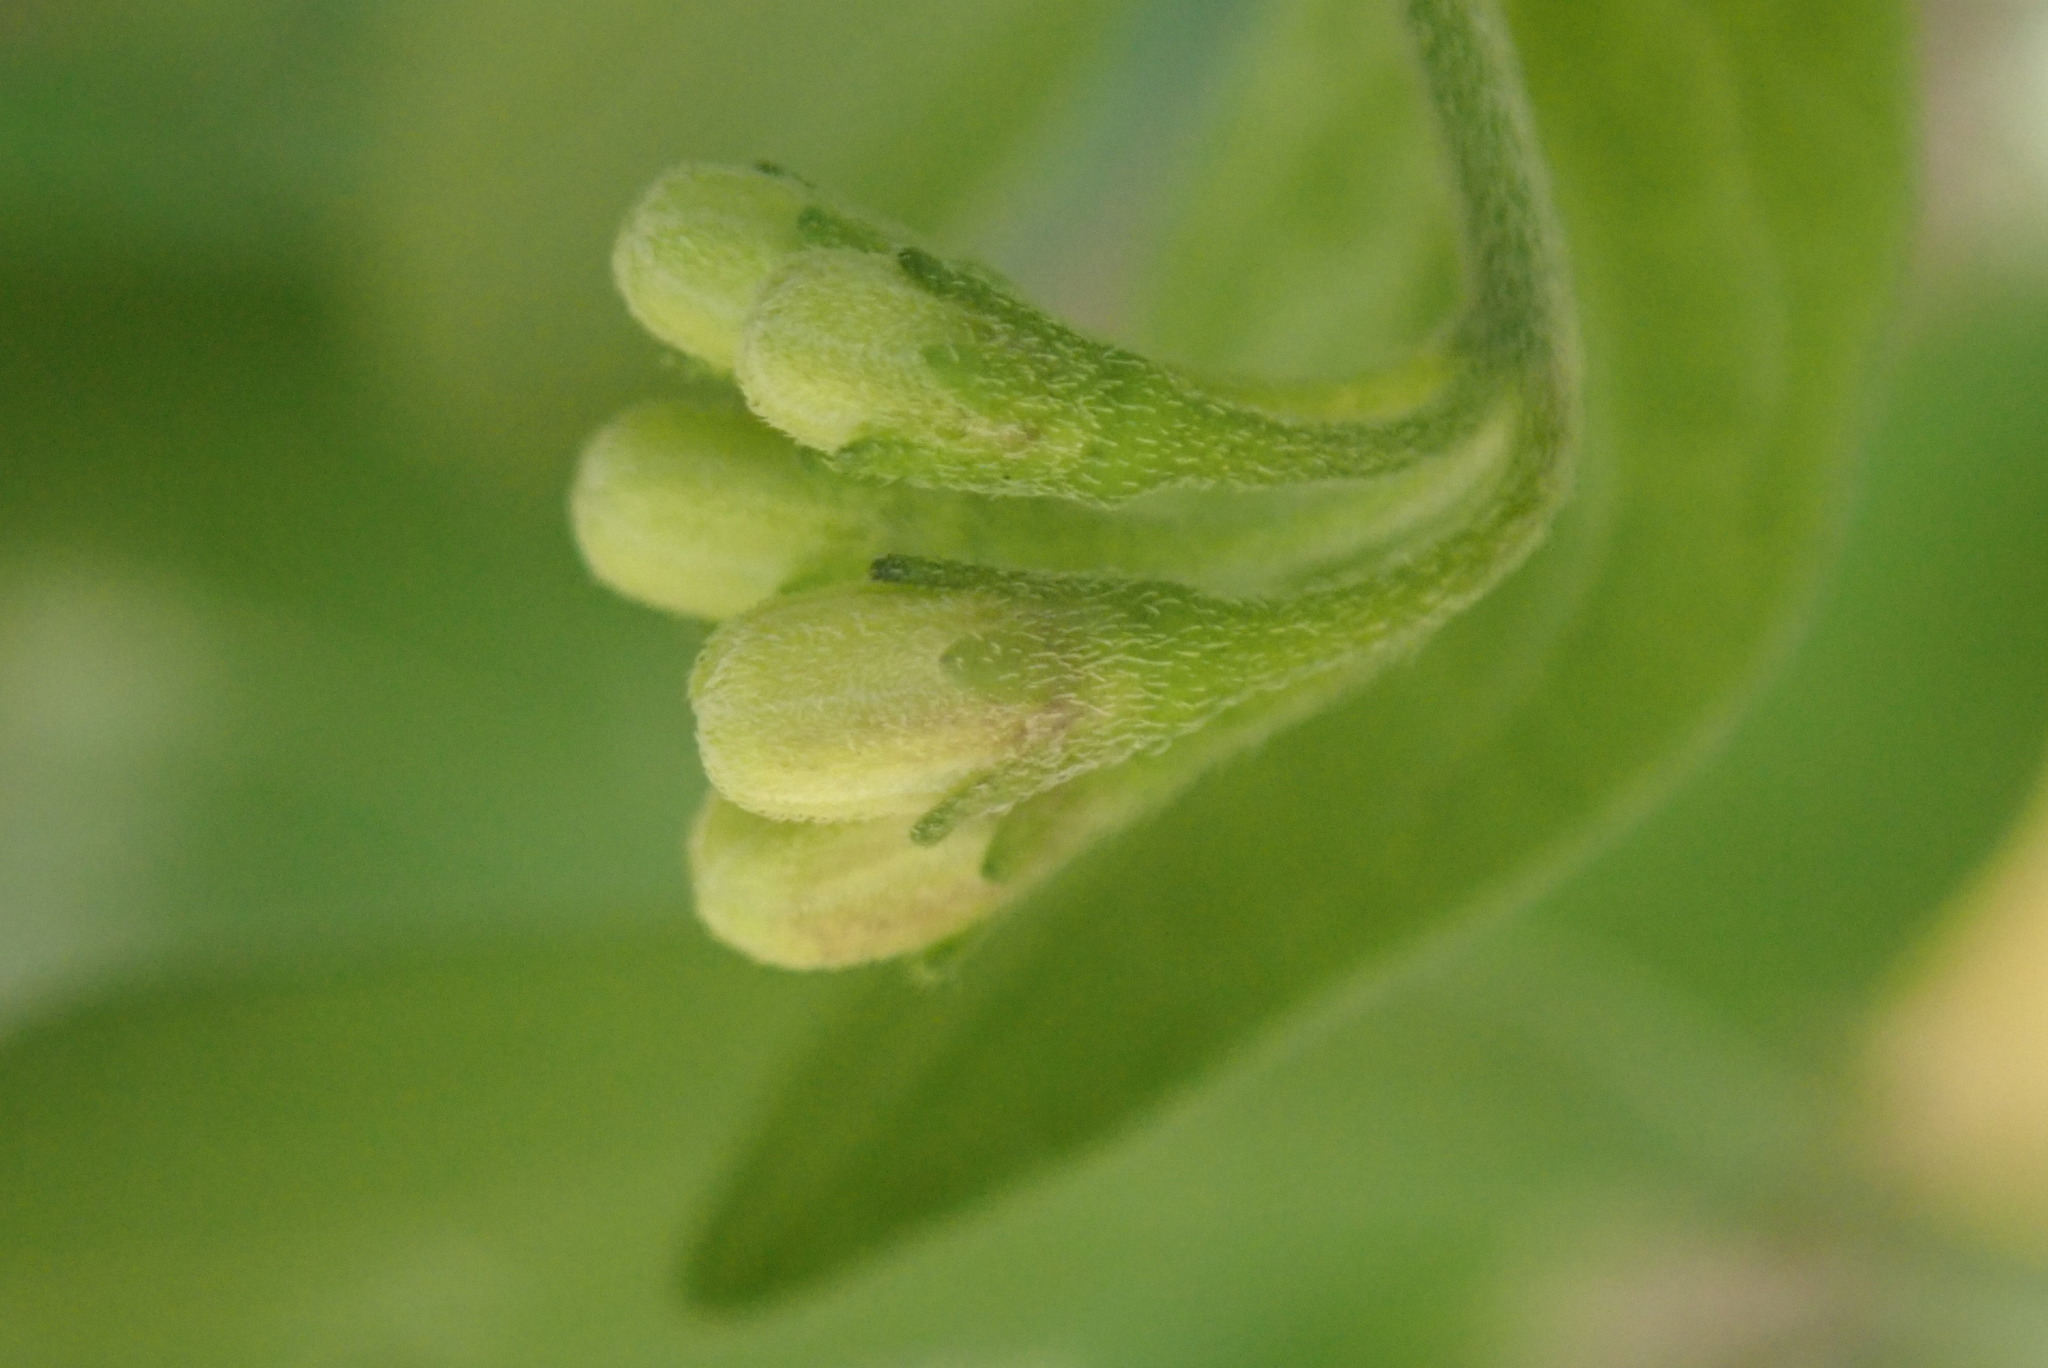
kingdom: Plantae
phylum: Tracheophyta
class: Magnoliopsida
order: Solanales
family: Solanaceae
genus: Solanum
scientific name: Solanum chenopodioides
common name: Tall nightshade
